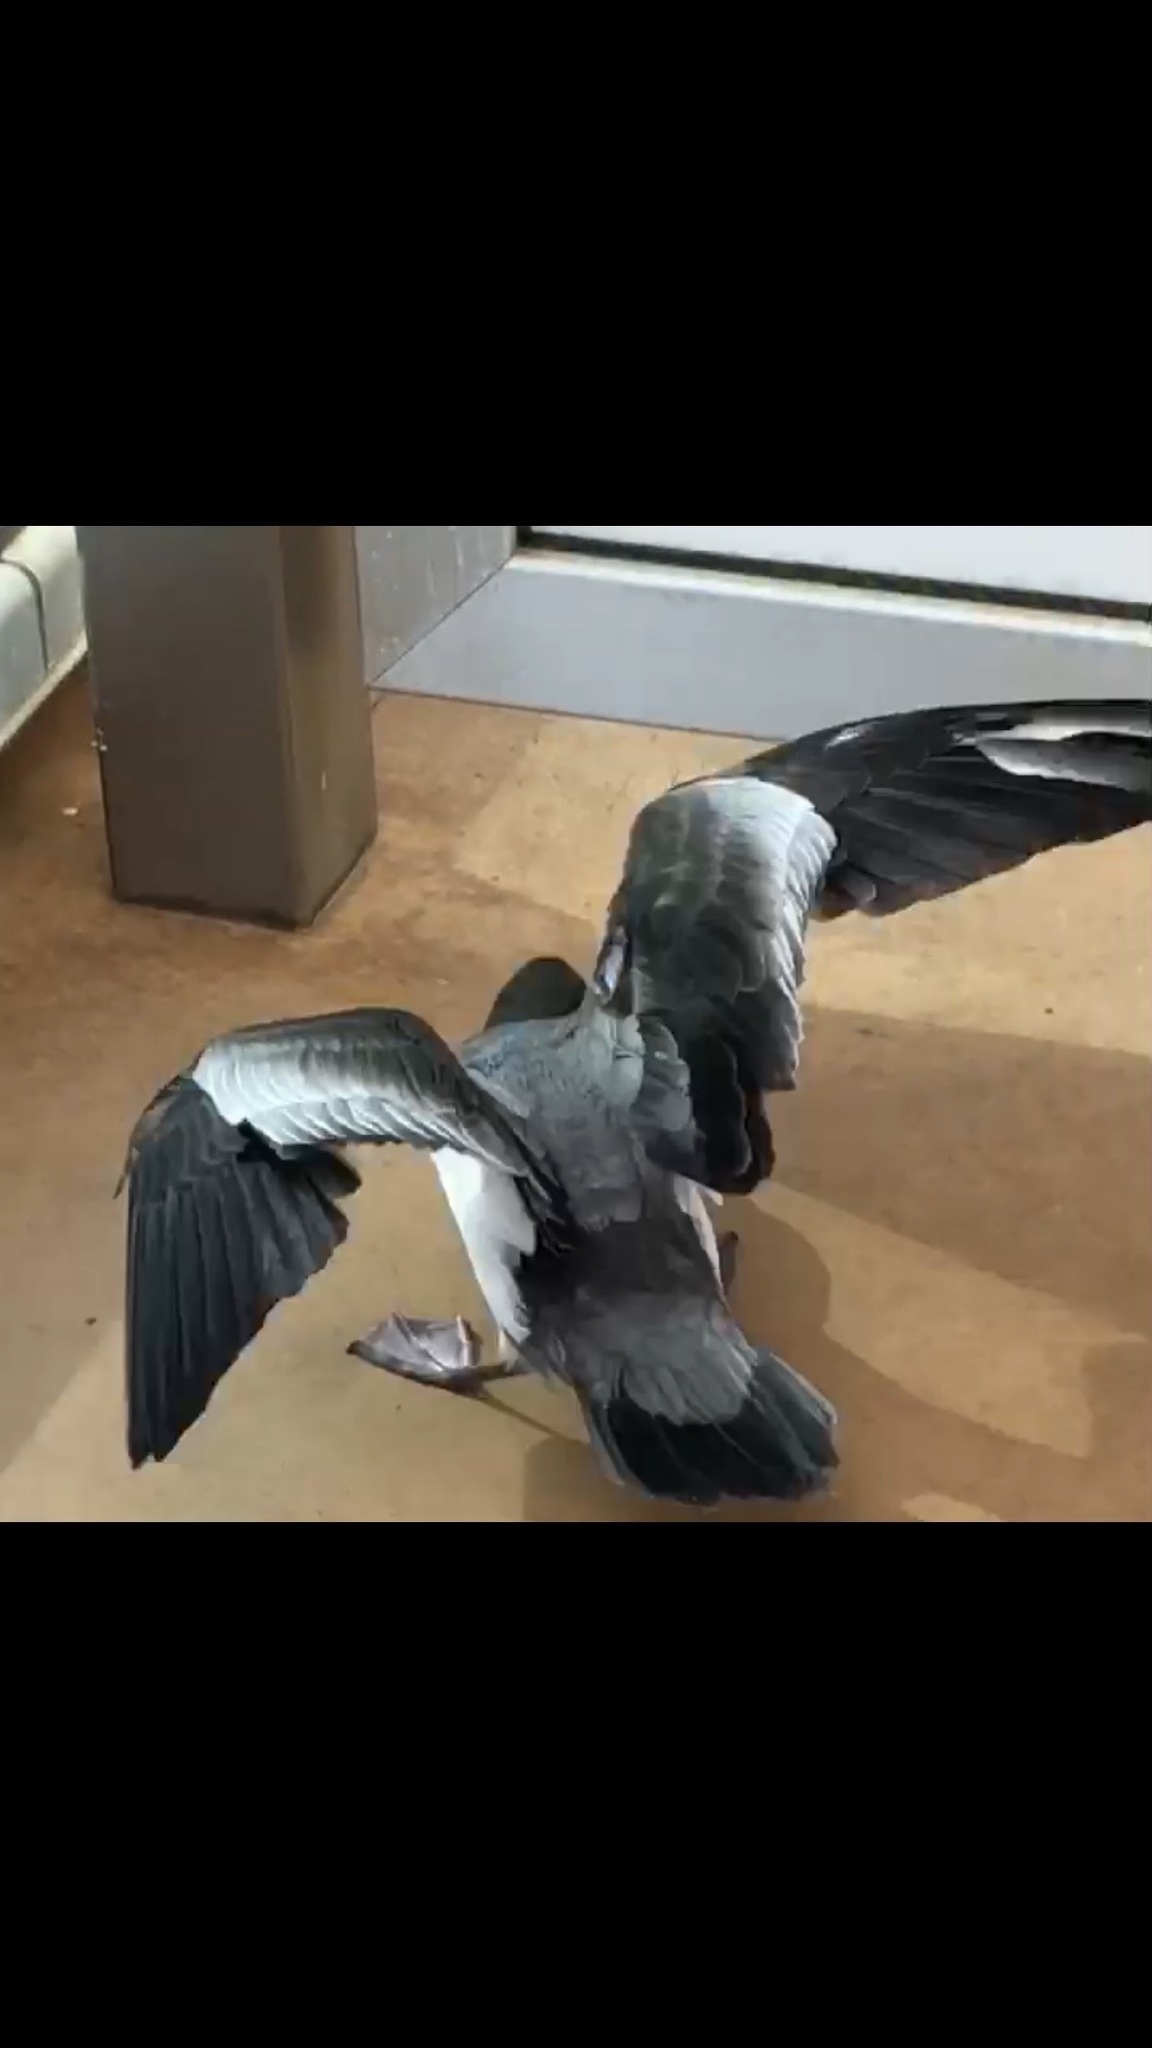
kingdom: Animalia
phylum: Chordata
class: Aves
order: Procellariiformes
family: Procellariidae
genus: Puffinus
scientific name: Puffinus bulleri
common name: Buller's shearwater
